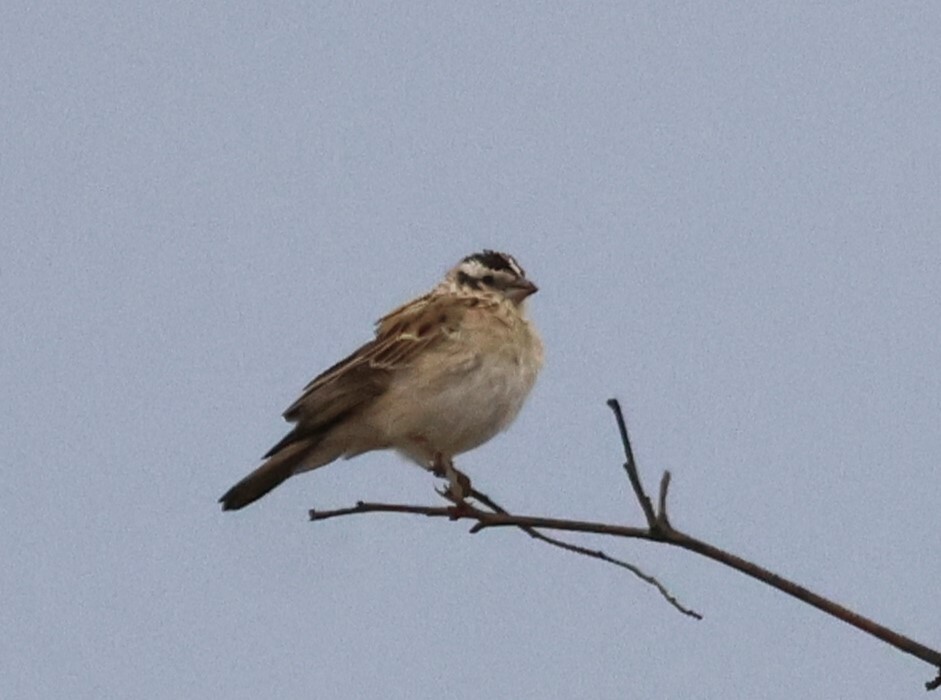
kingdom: Animalia
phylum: Chordata
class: Aves
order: Passeriformes
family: Viduidae
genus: Vidua
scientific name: Vidua paradisaea
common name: Long-tailed paradise whydah
